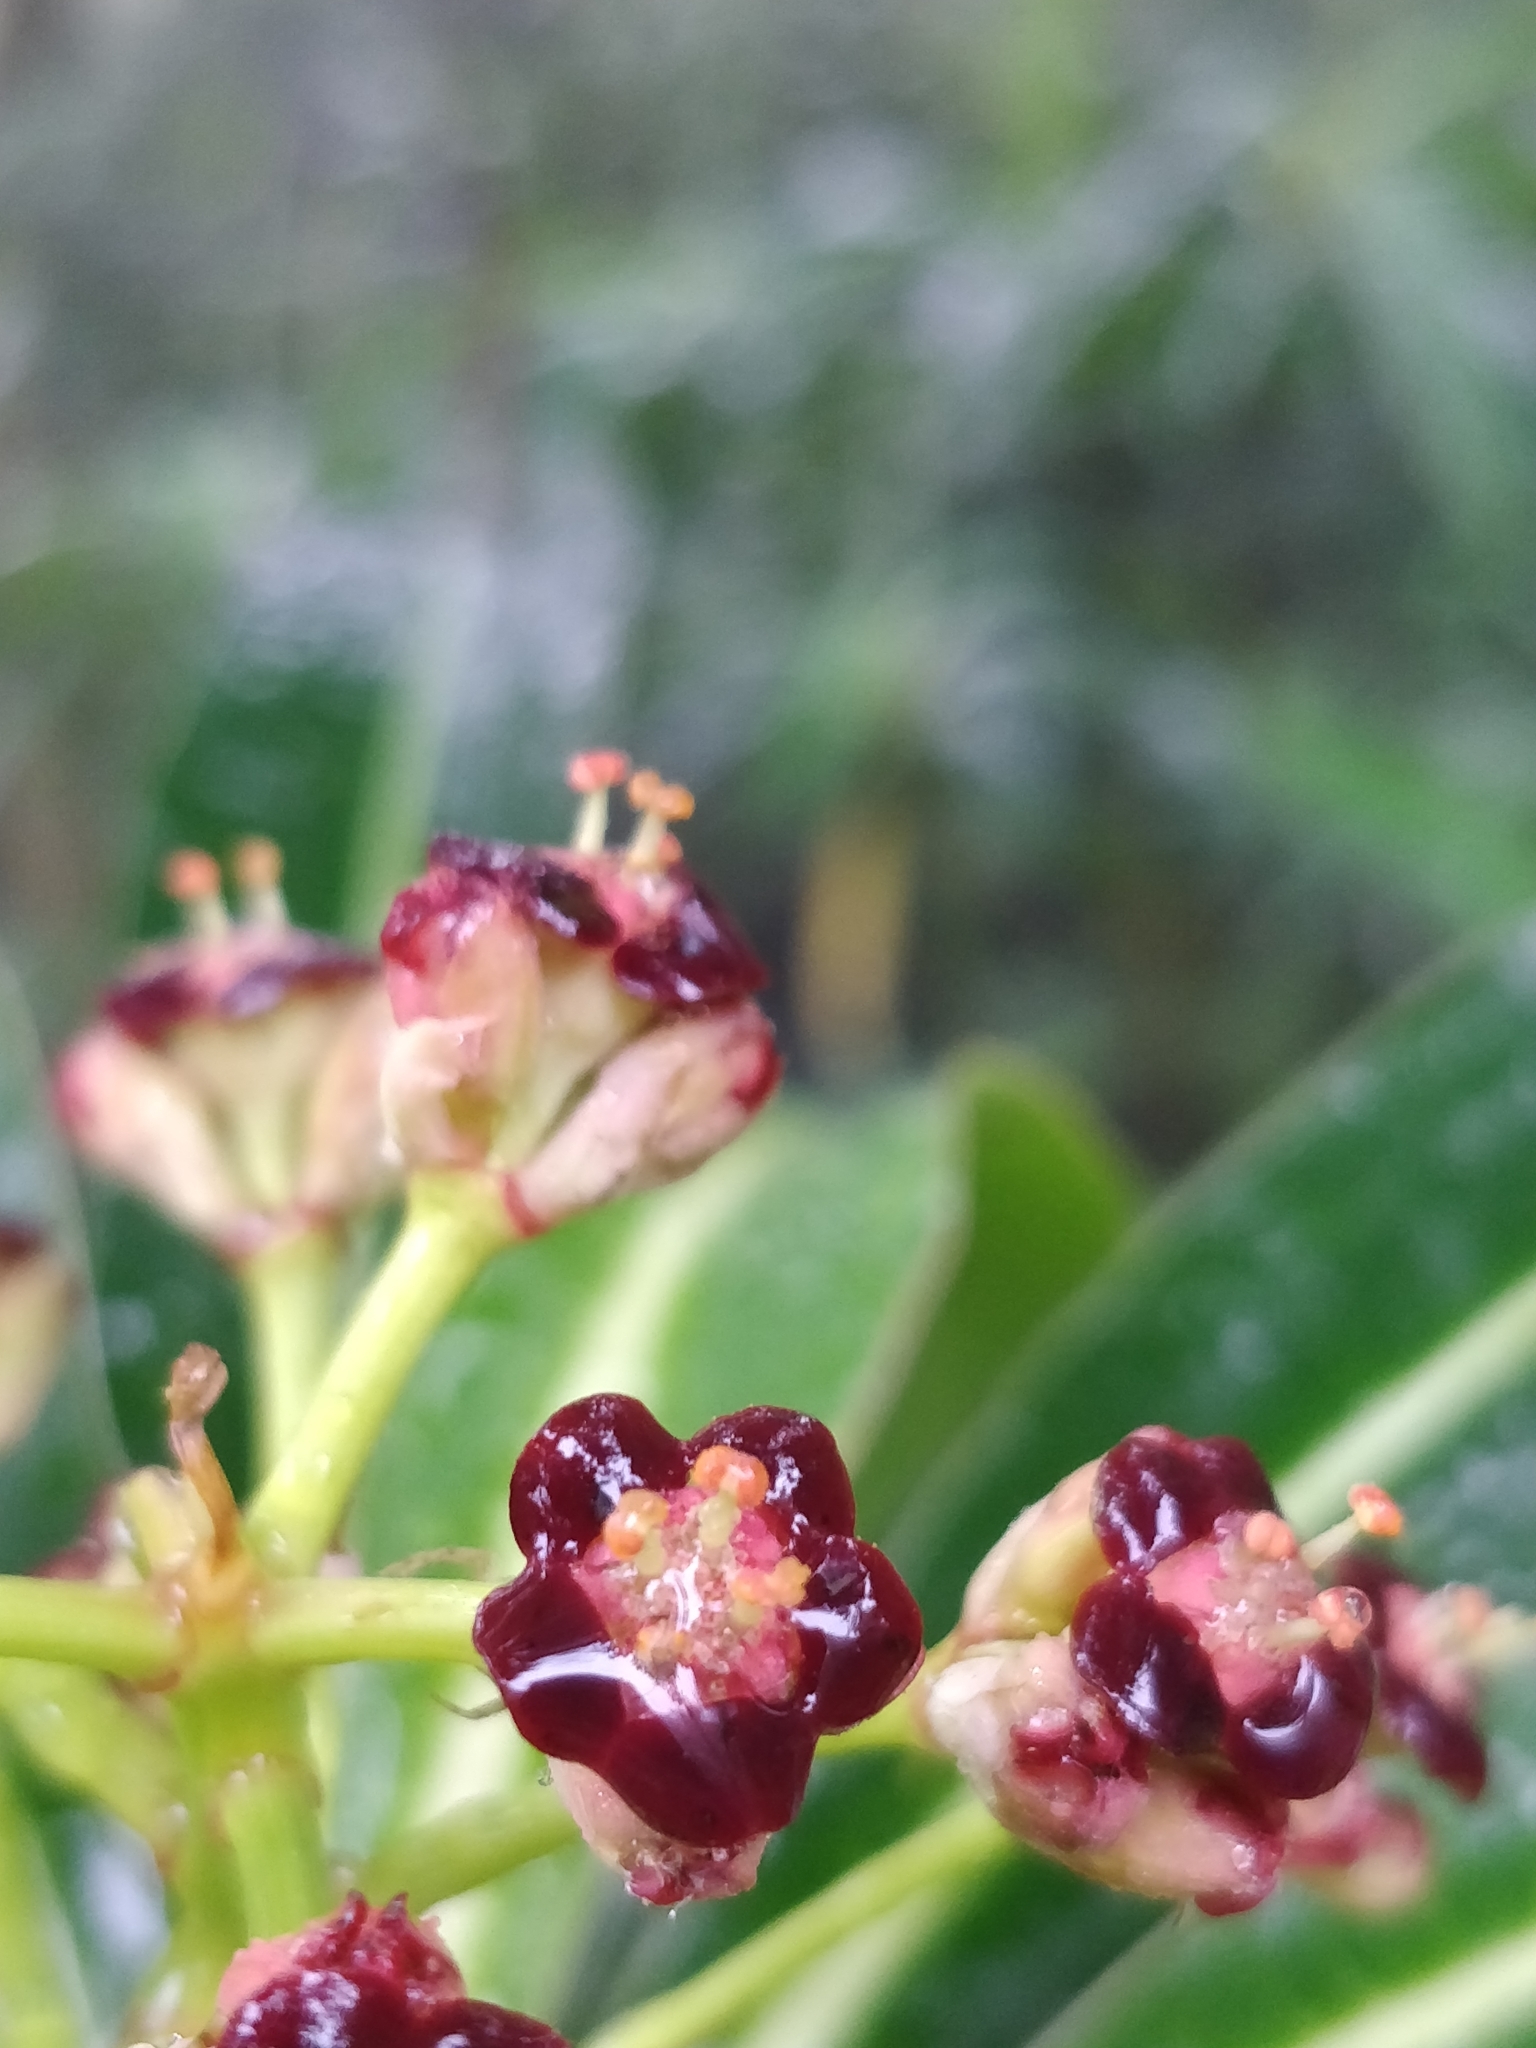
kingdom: Plantae
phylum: Tracheophyta
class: Magnoliopsida
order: Malpighiales
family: Euphorbiaceae
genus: Euphorbia
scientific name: Euphorbia mellifera
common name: Canary spurge
